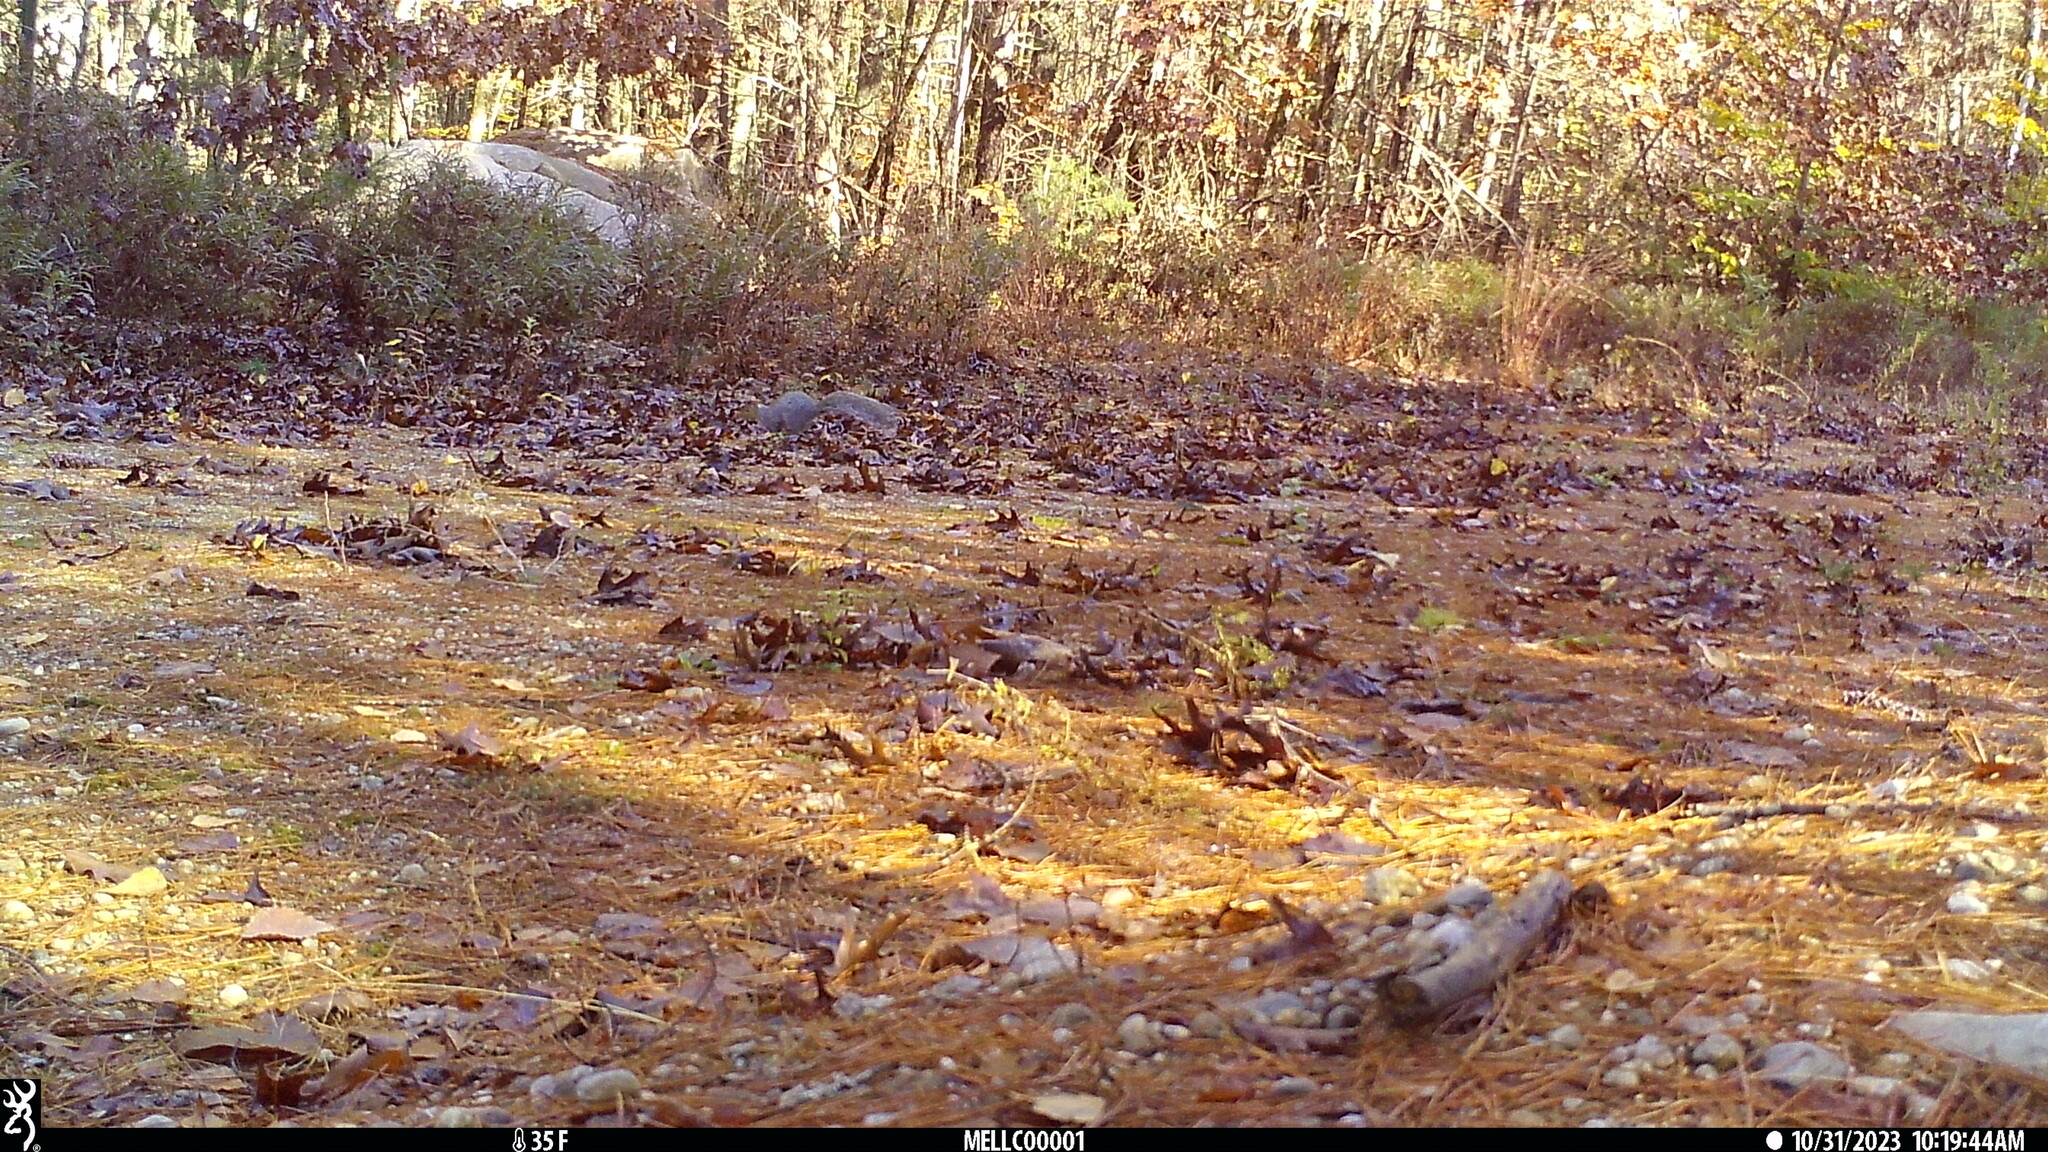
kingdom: Animalia
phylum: Chordata
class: Mammalia
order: Rodentia
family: Sciuridae
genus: Sciurus
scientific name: Sciurus carolinensis
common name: Eastern gray squirrel
